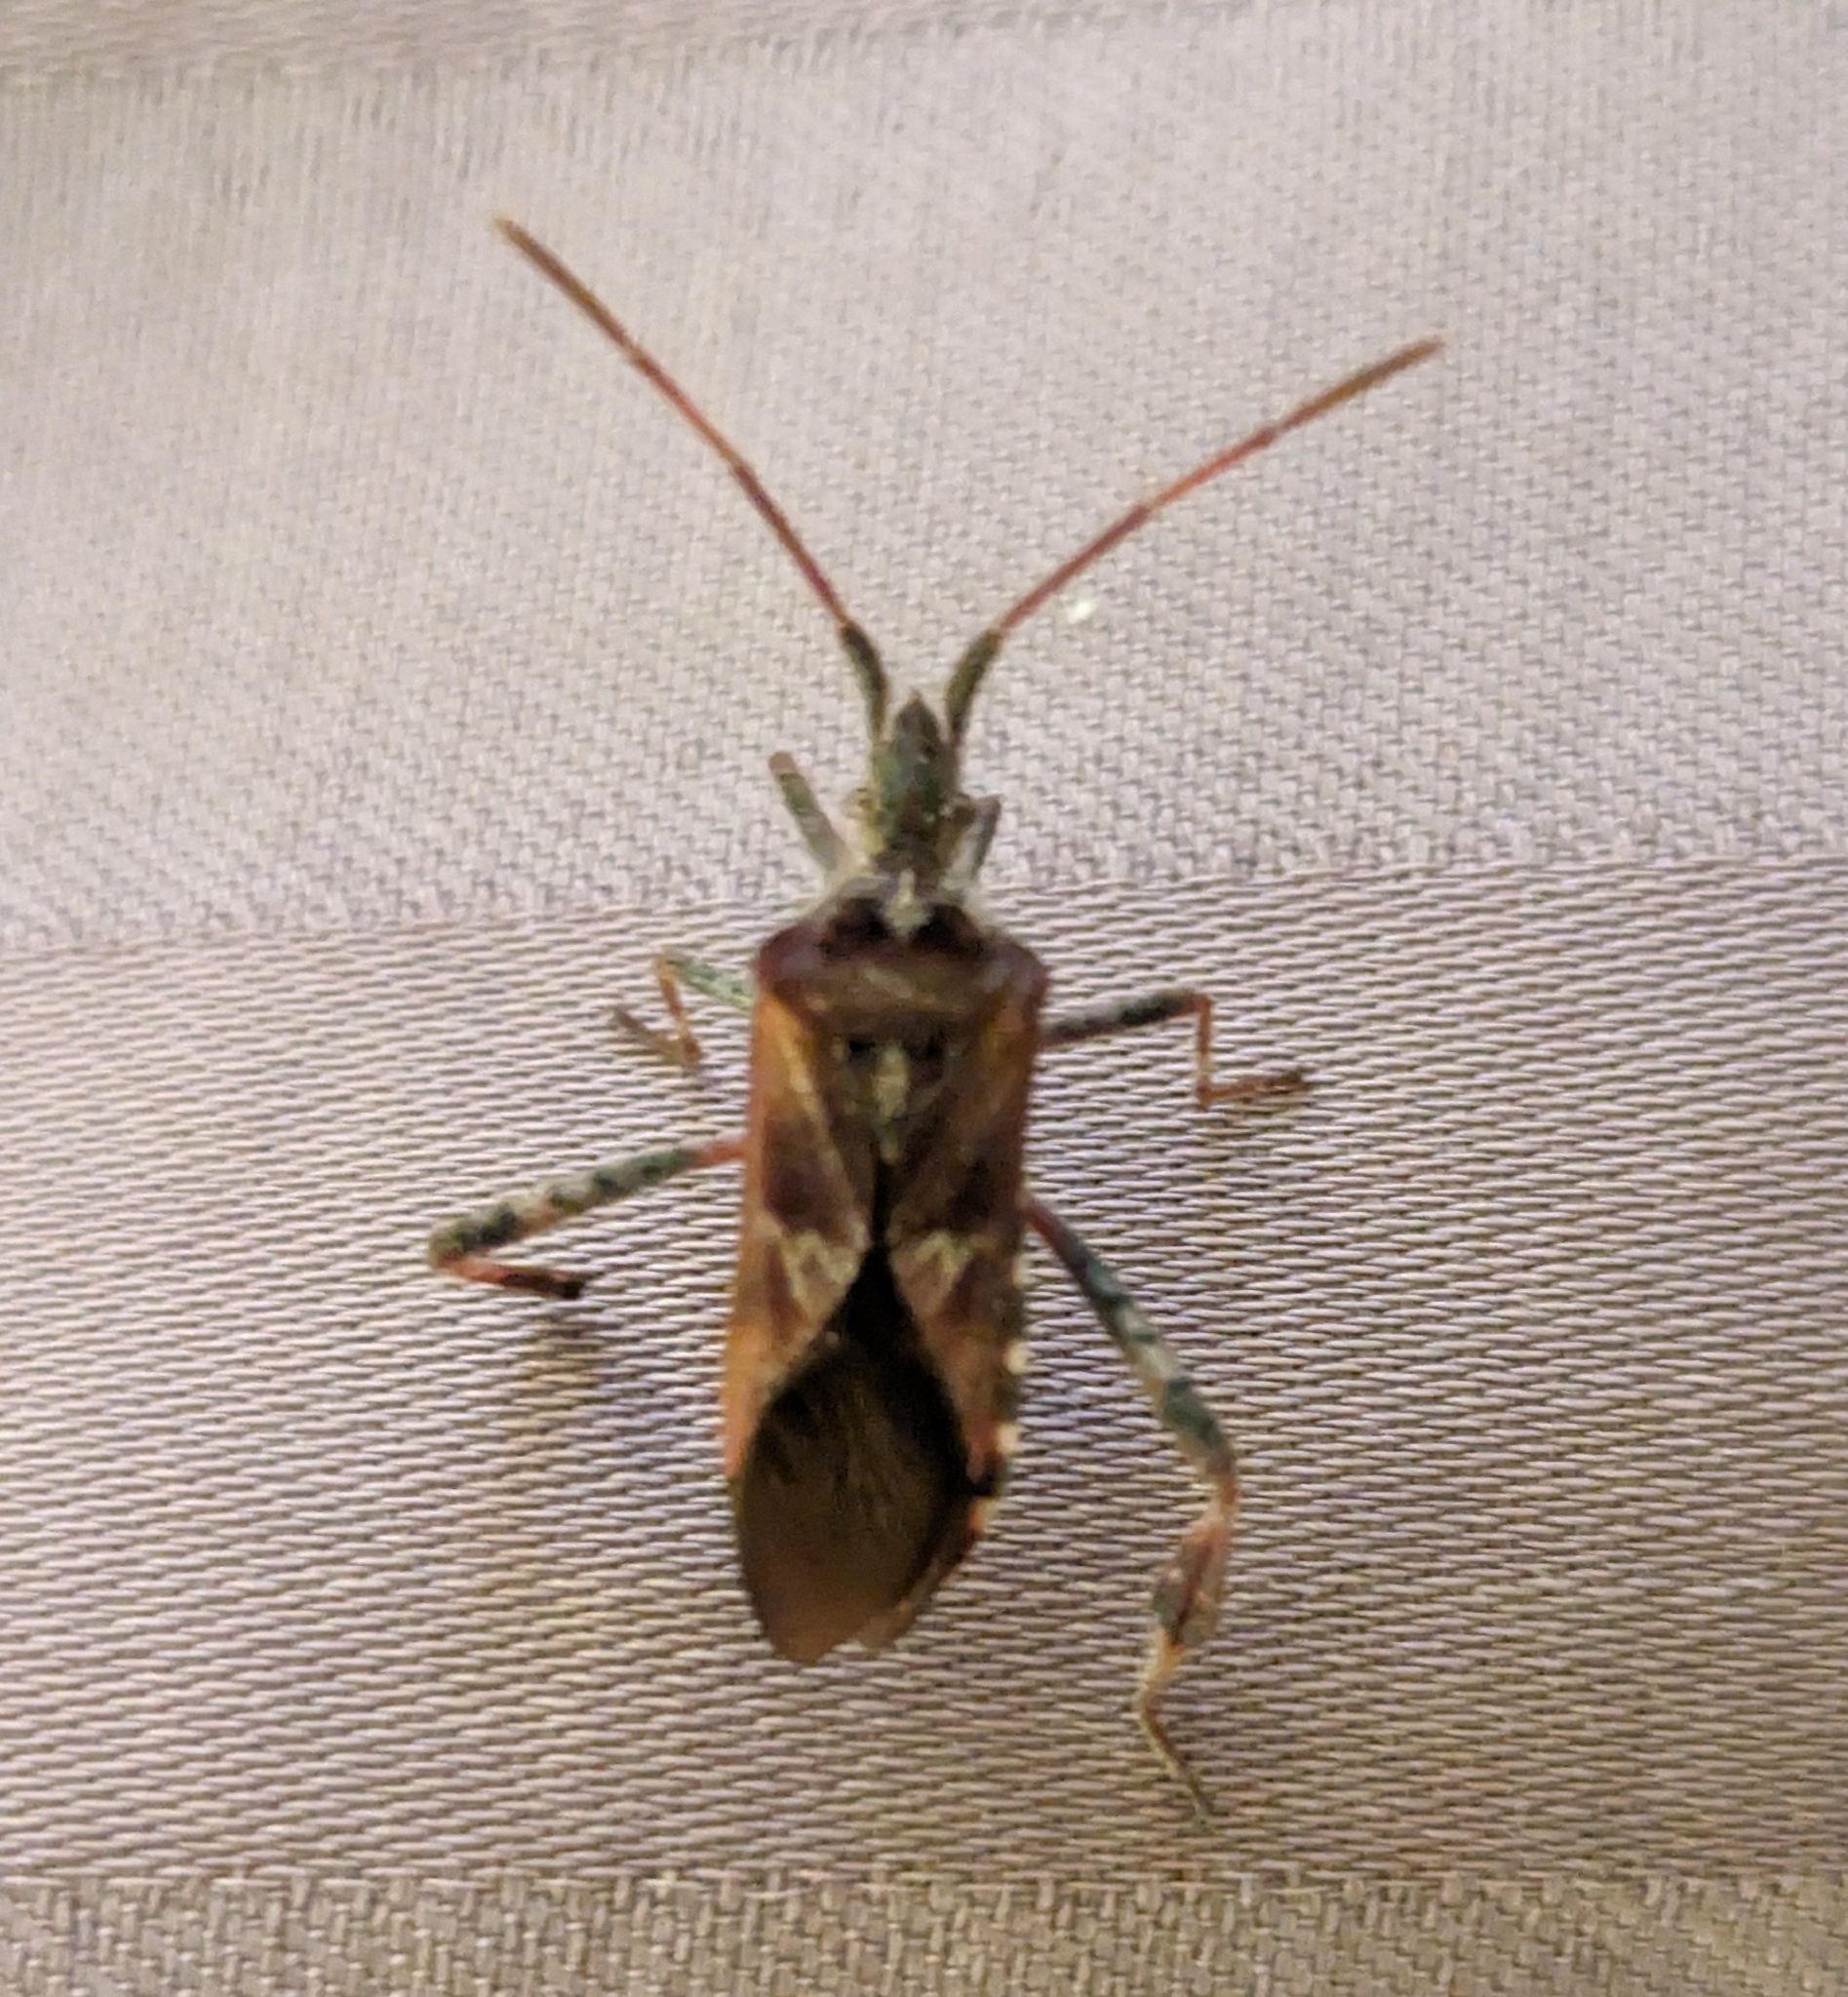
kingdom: Animalia
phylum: Arthropoda
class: Insecta
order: Hemiptera
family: Coreidae
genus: Leptoglossus
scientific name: Leptoglossus occidentalis
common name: Western conifer-seed bug
